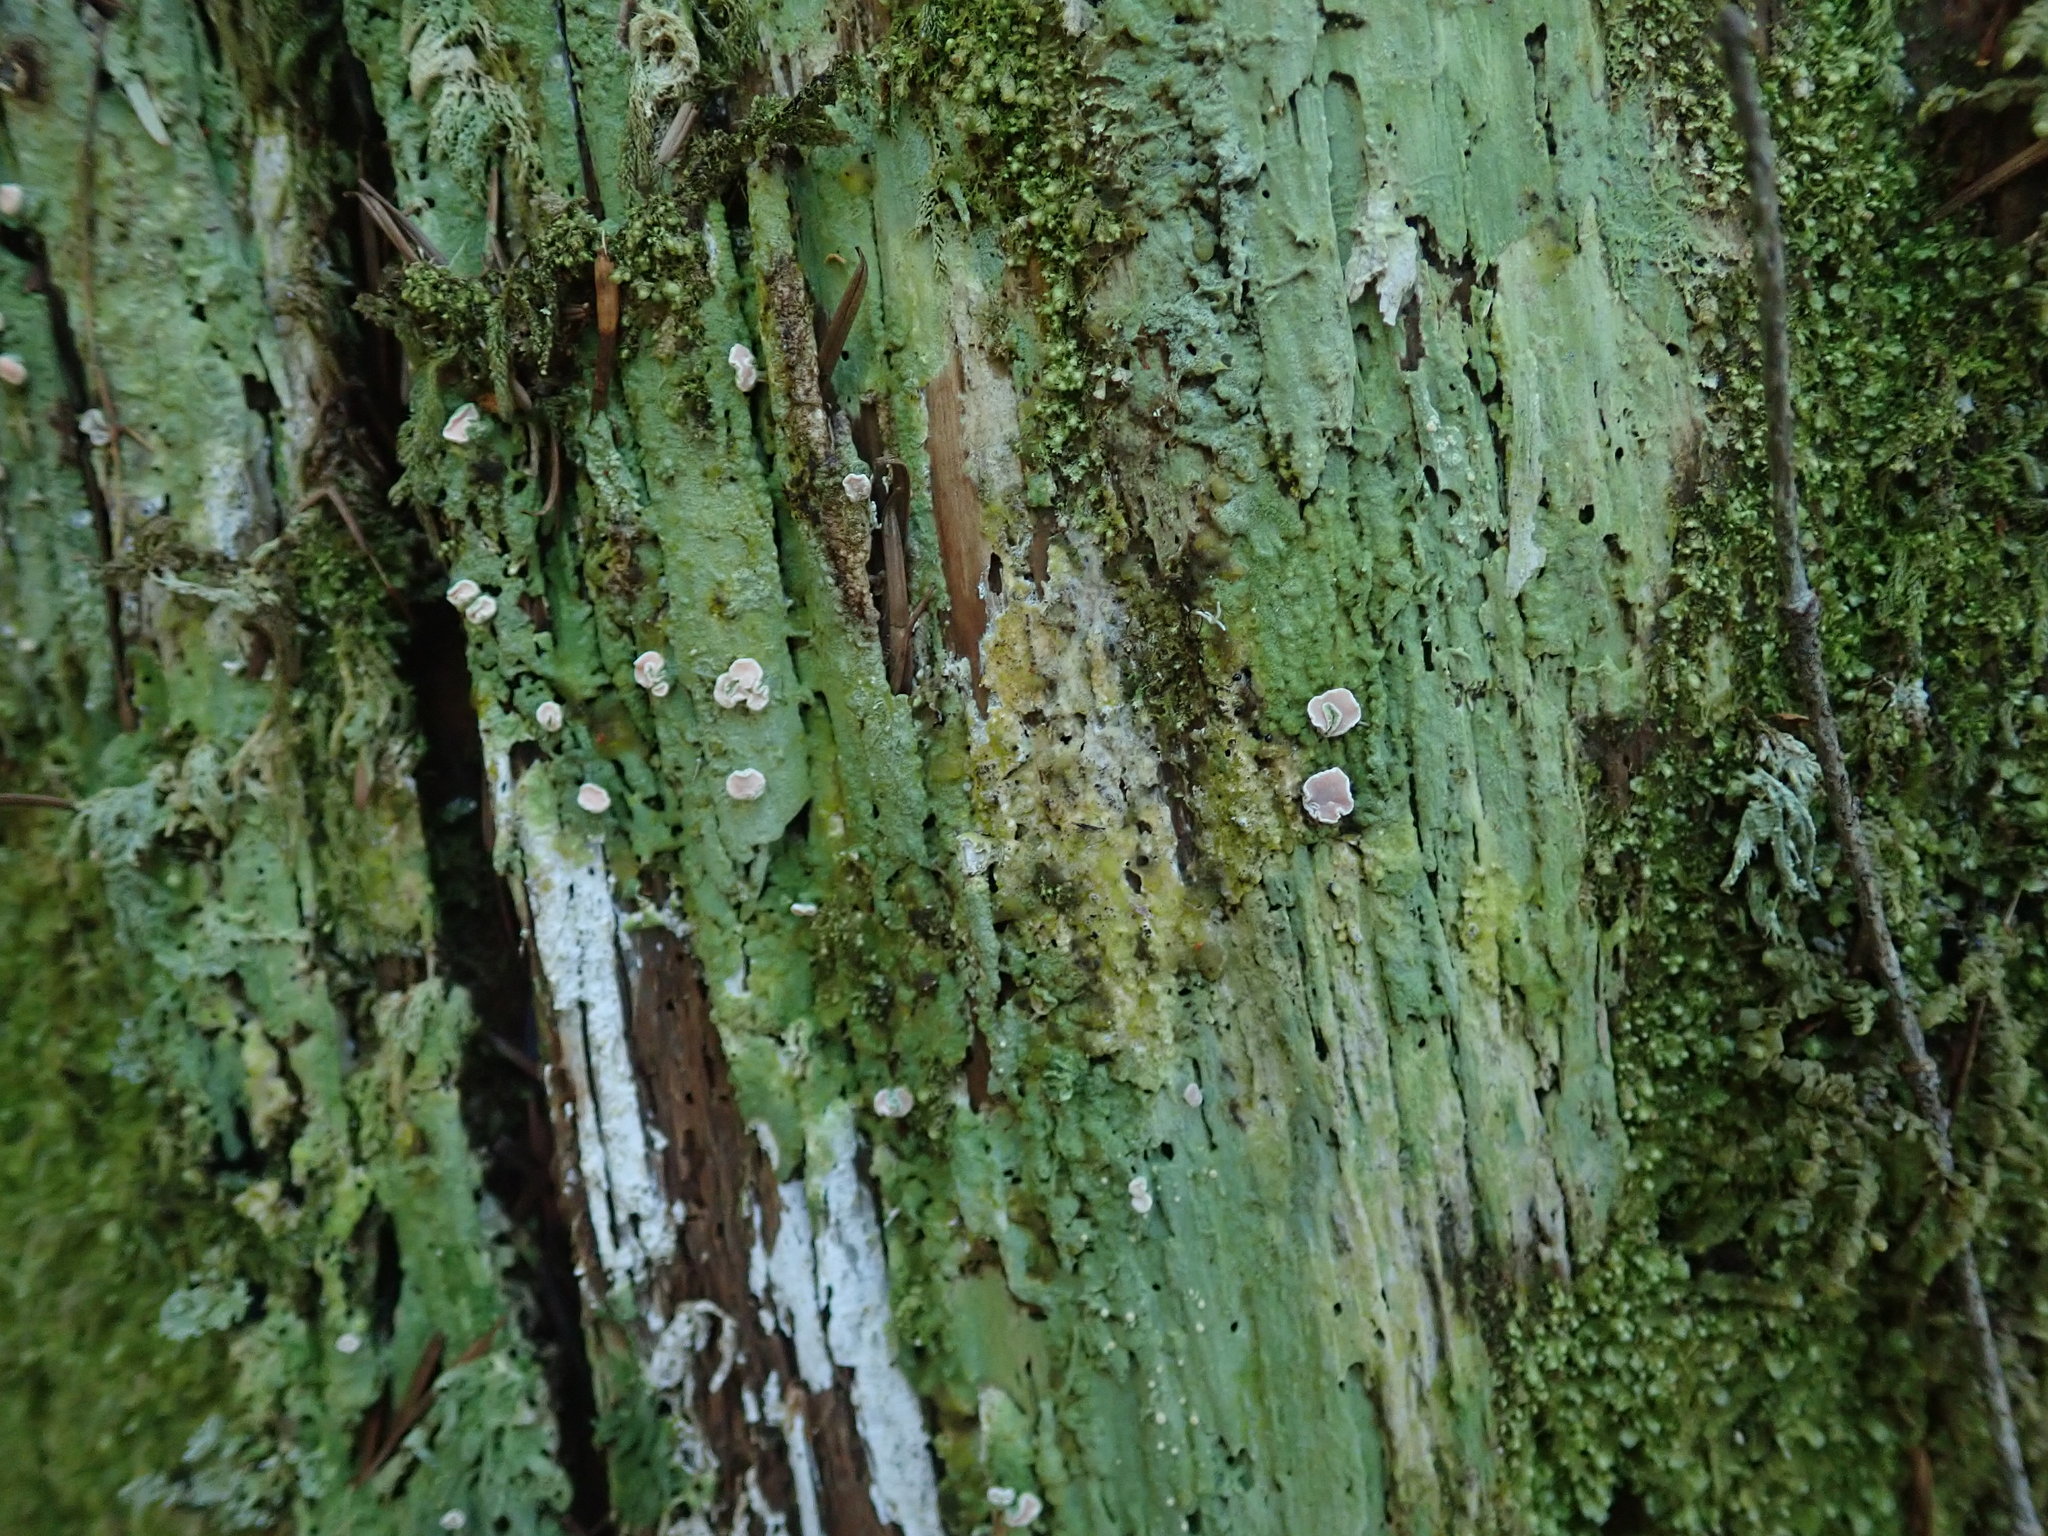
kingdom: Fungi
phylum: Ascomycota
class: Lecanoromycetes
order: Pertusariales
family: Icmadophilaceae
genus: Icmadophila
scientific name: Icmadophila ericetorum
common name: Candy lichen
